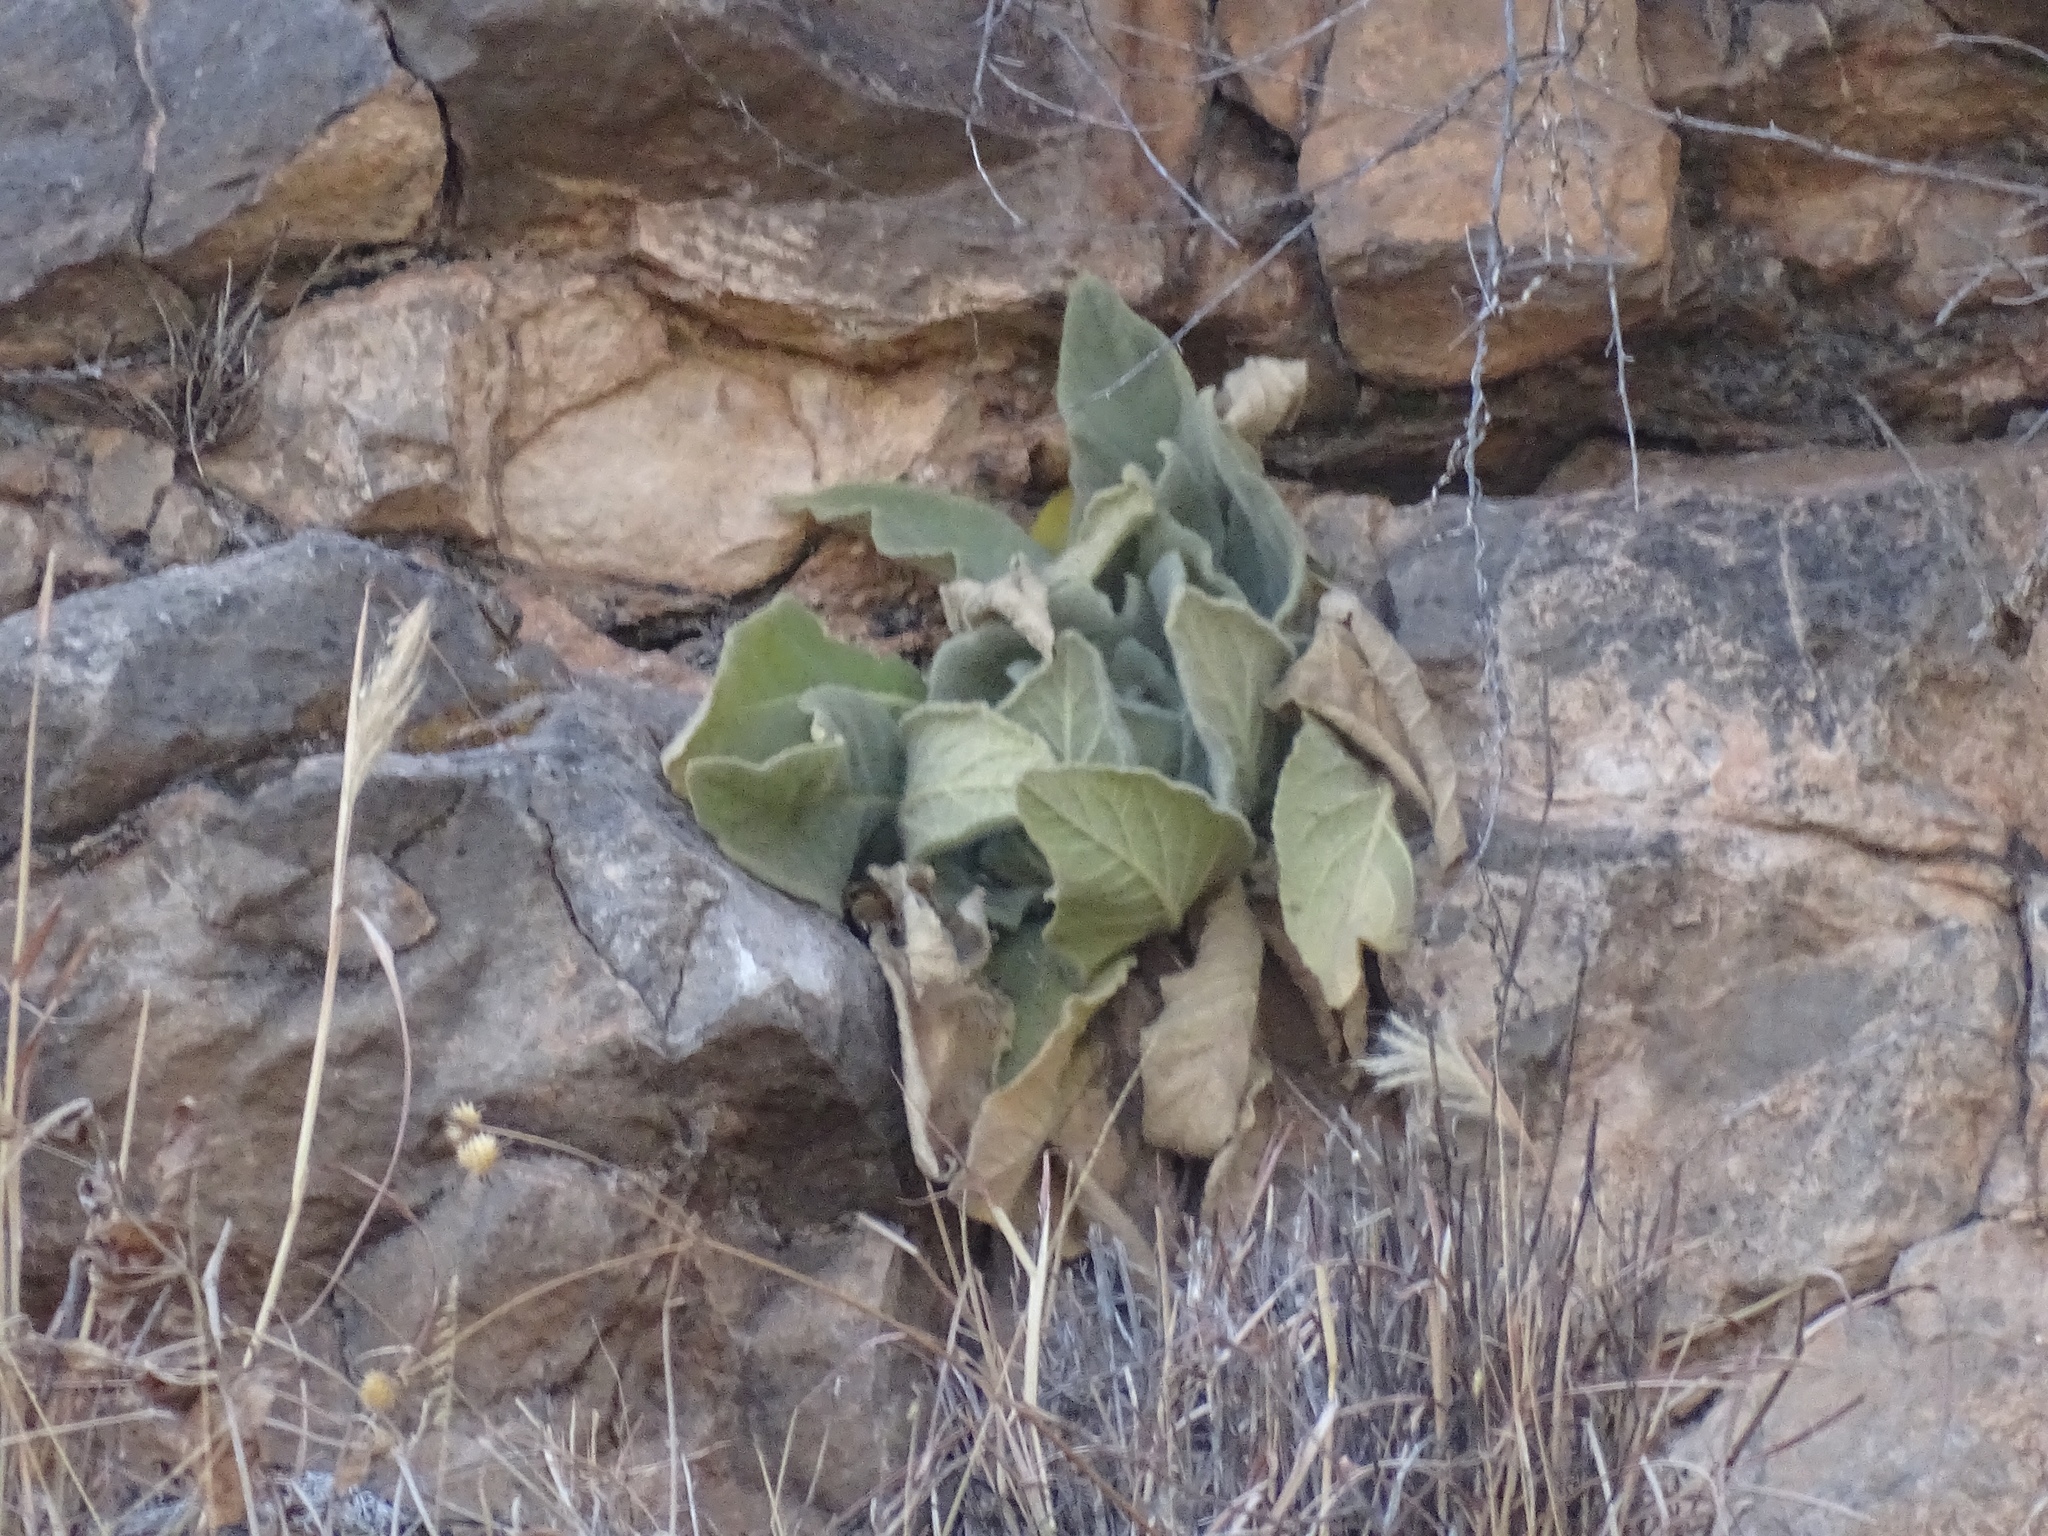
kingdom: Plantae
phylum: Tracheophyta
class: Magnoliopsida
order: Lamiales
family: Scrophulariaceae
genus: Verbascum
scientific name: Verbascum thapsus
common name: Common mullein
